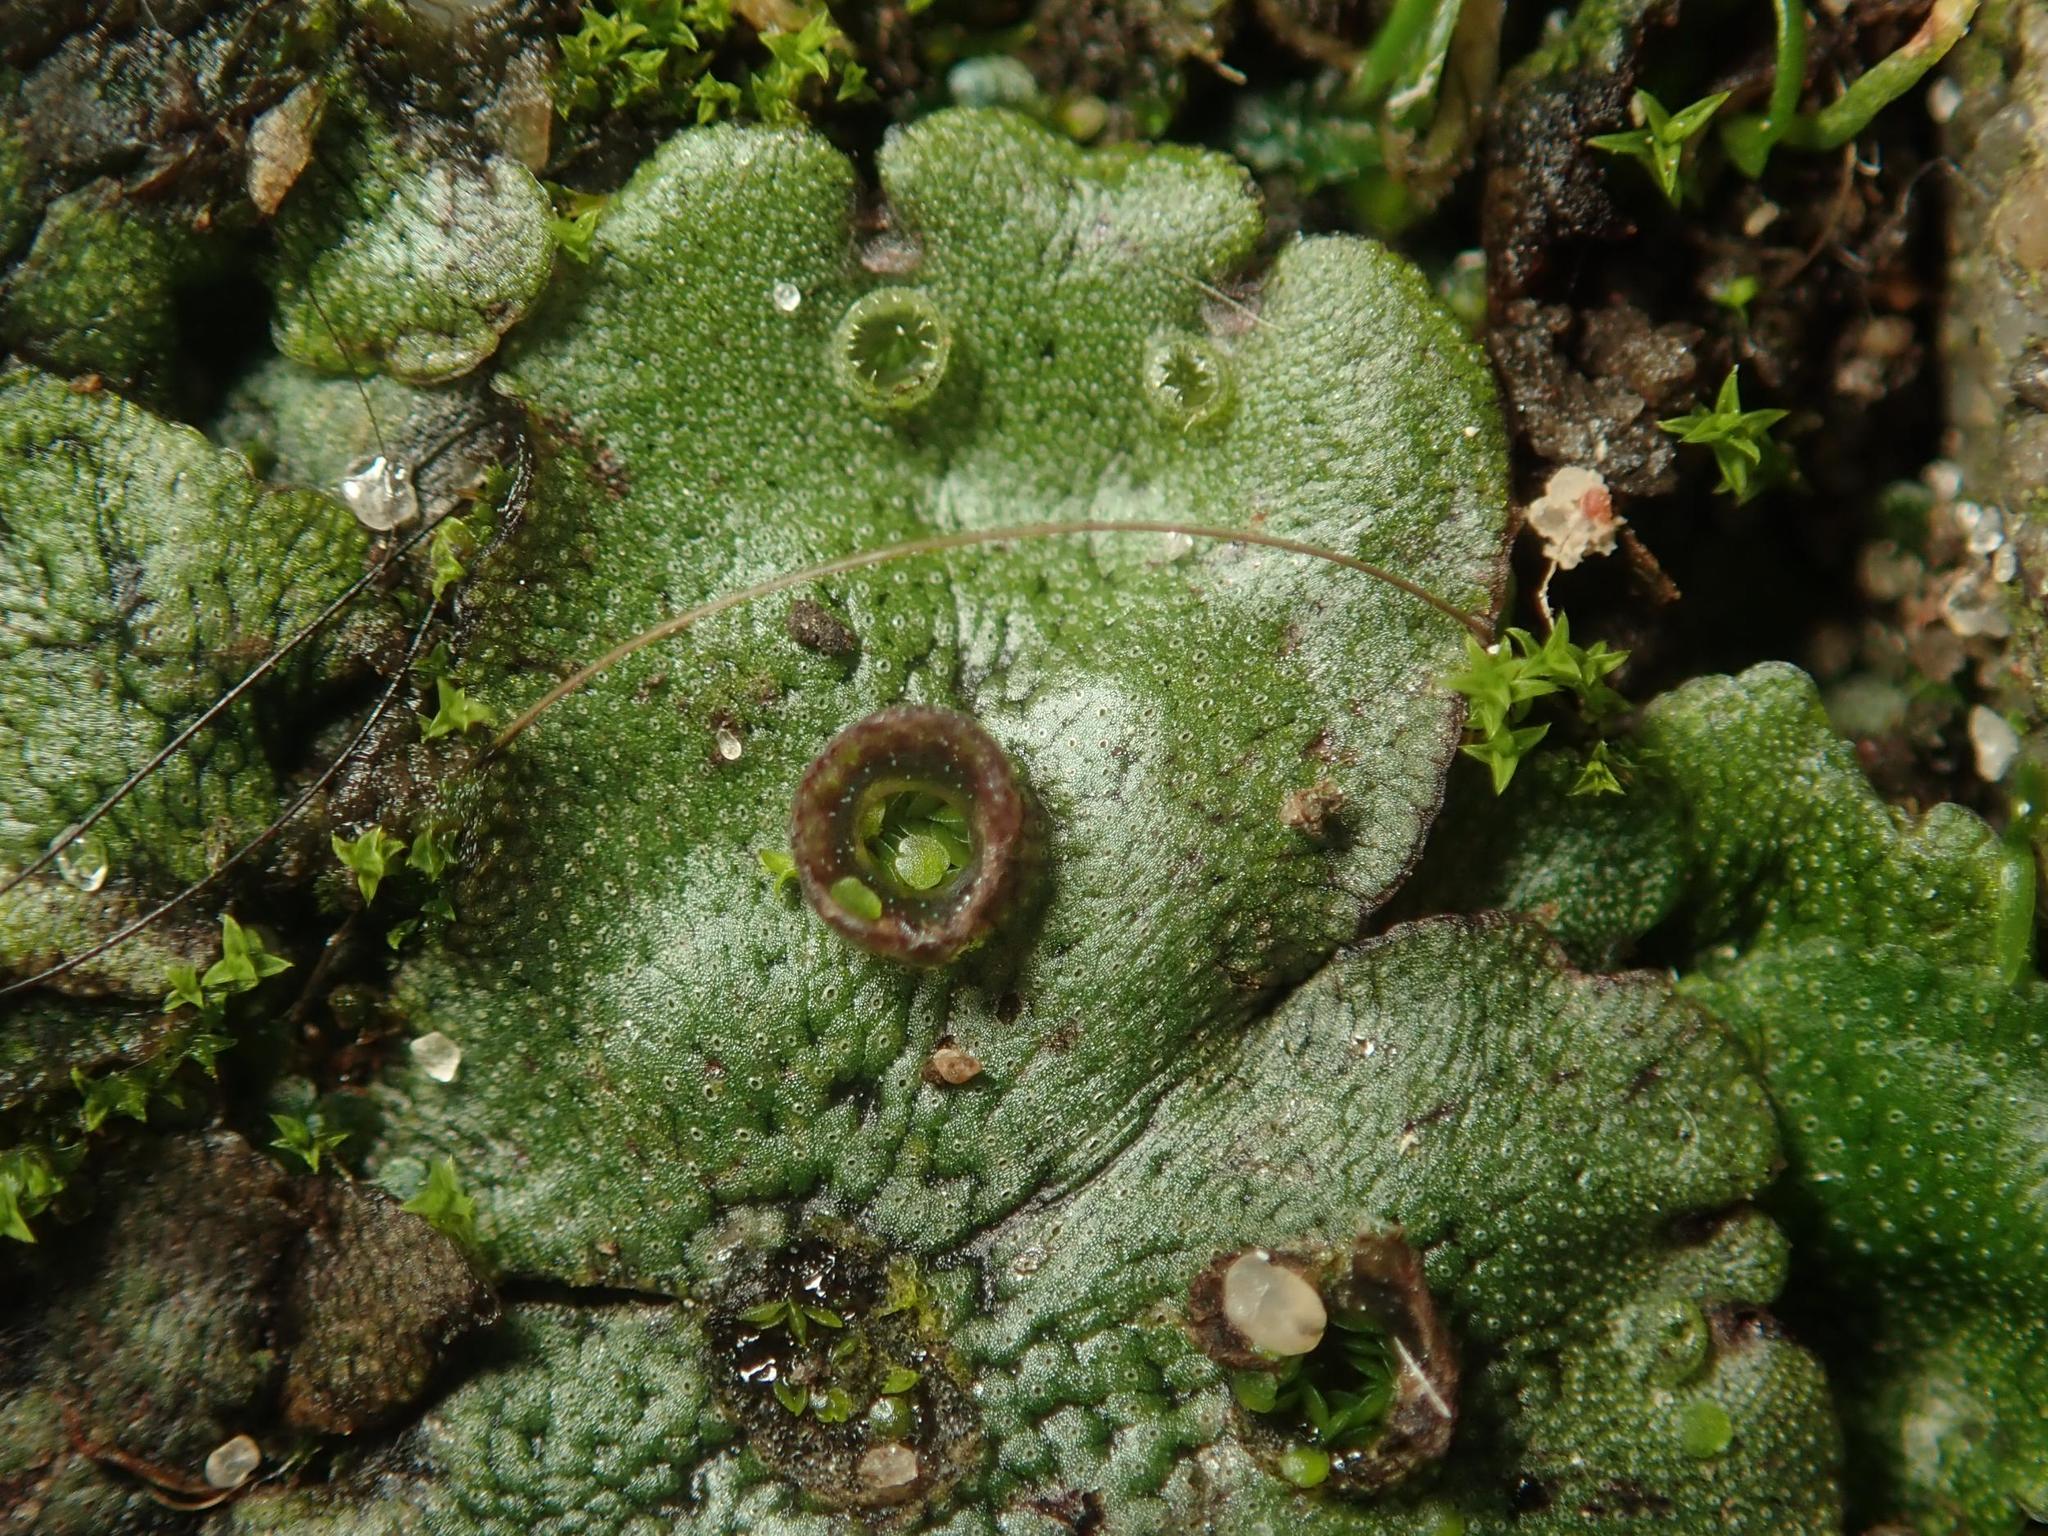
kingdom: Plantae
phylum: Marchantiophyta
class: Marchantiopsida
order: Marchantiales
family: Marchantiaceae
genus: Marchantia
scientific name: Marchantia polymorpha
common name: Common liverwort
